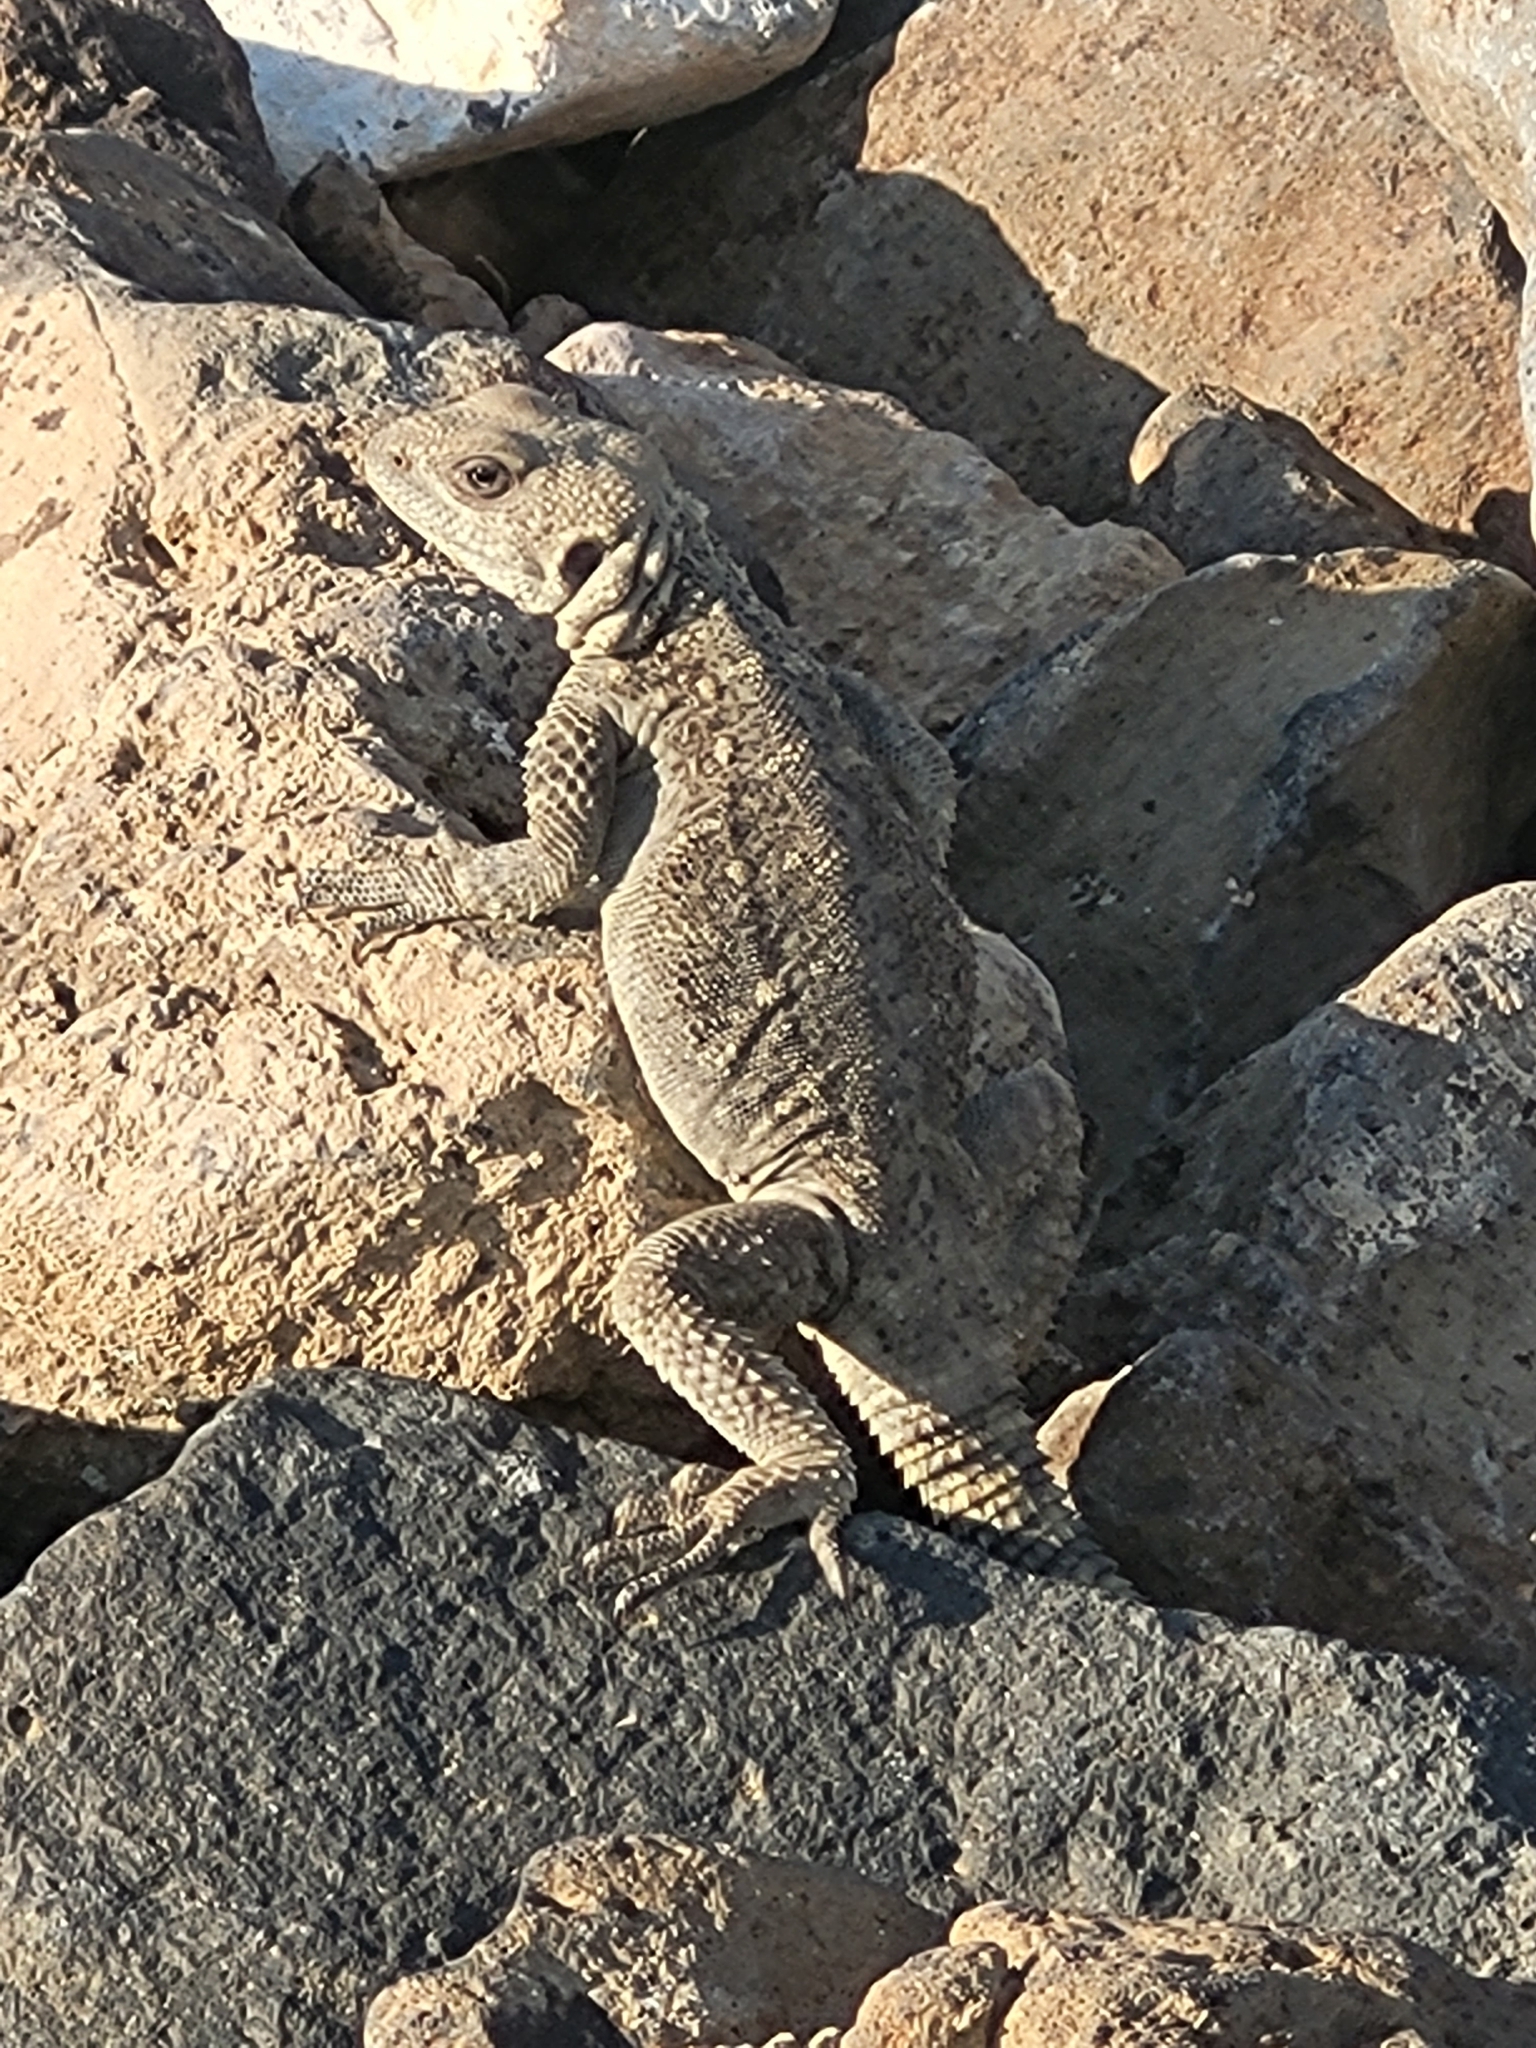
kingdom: Animalia
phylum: Chordata
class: Squamata
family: Agamidae
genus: Paralaudakia
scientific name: Paralaudakia caucasia
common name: Caucasian agama
